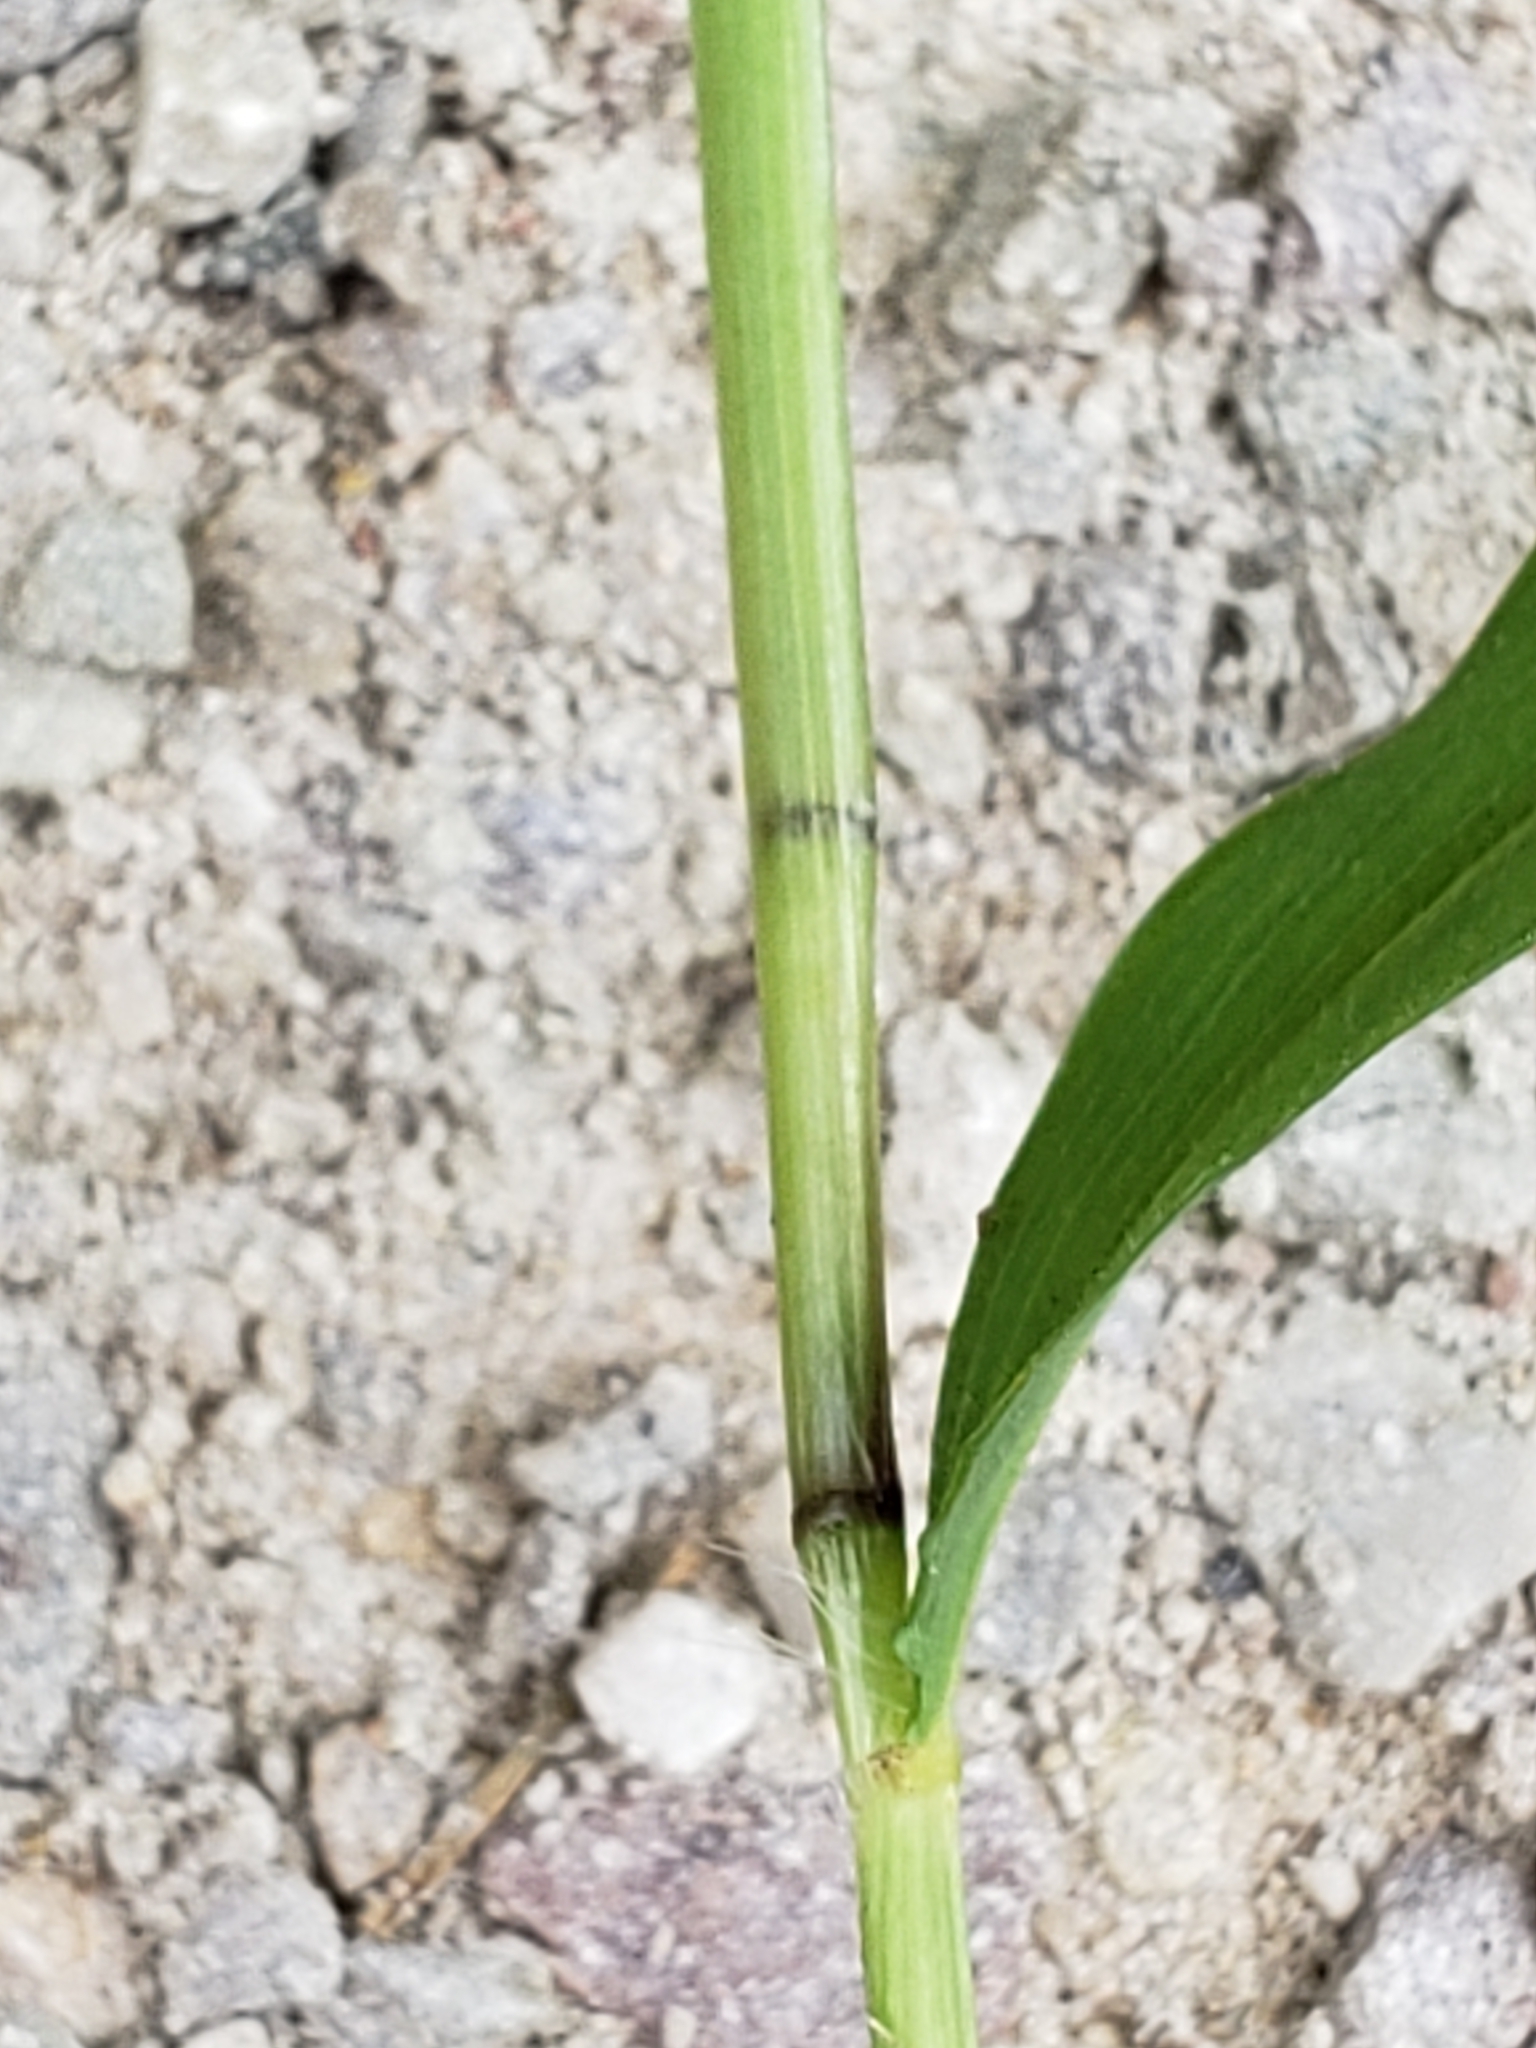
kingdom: Plantae
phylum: Tracheophyta
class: Liliopsida
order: Poales
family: Poaceae
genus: Microstegium
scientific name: Microstegium vimineum
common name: Japanese stiltgrass
